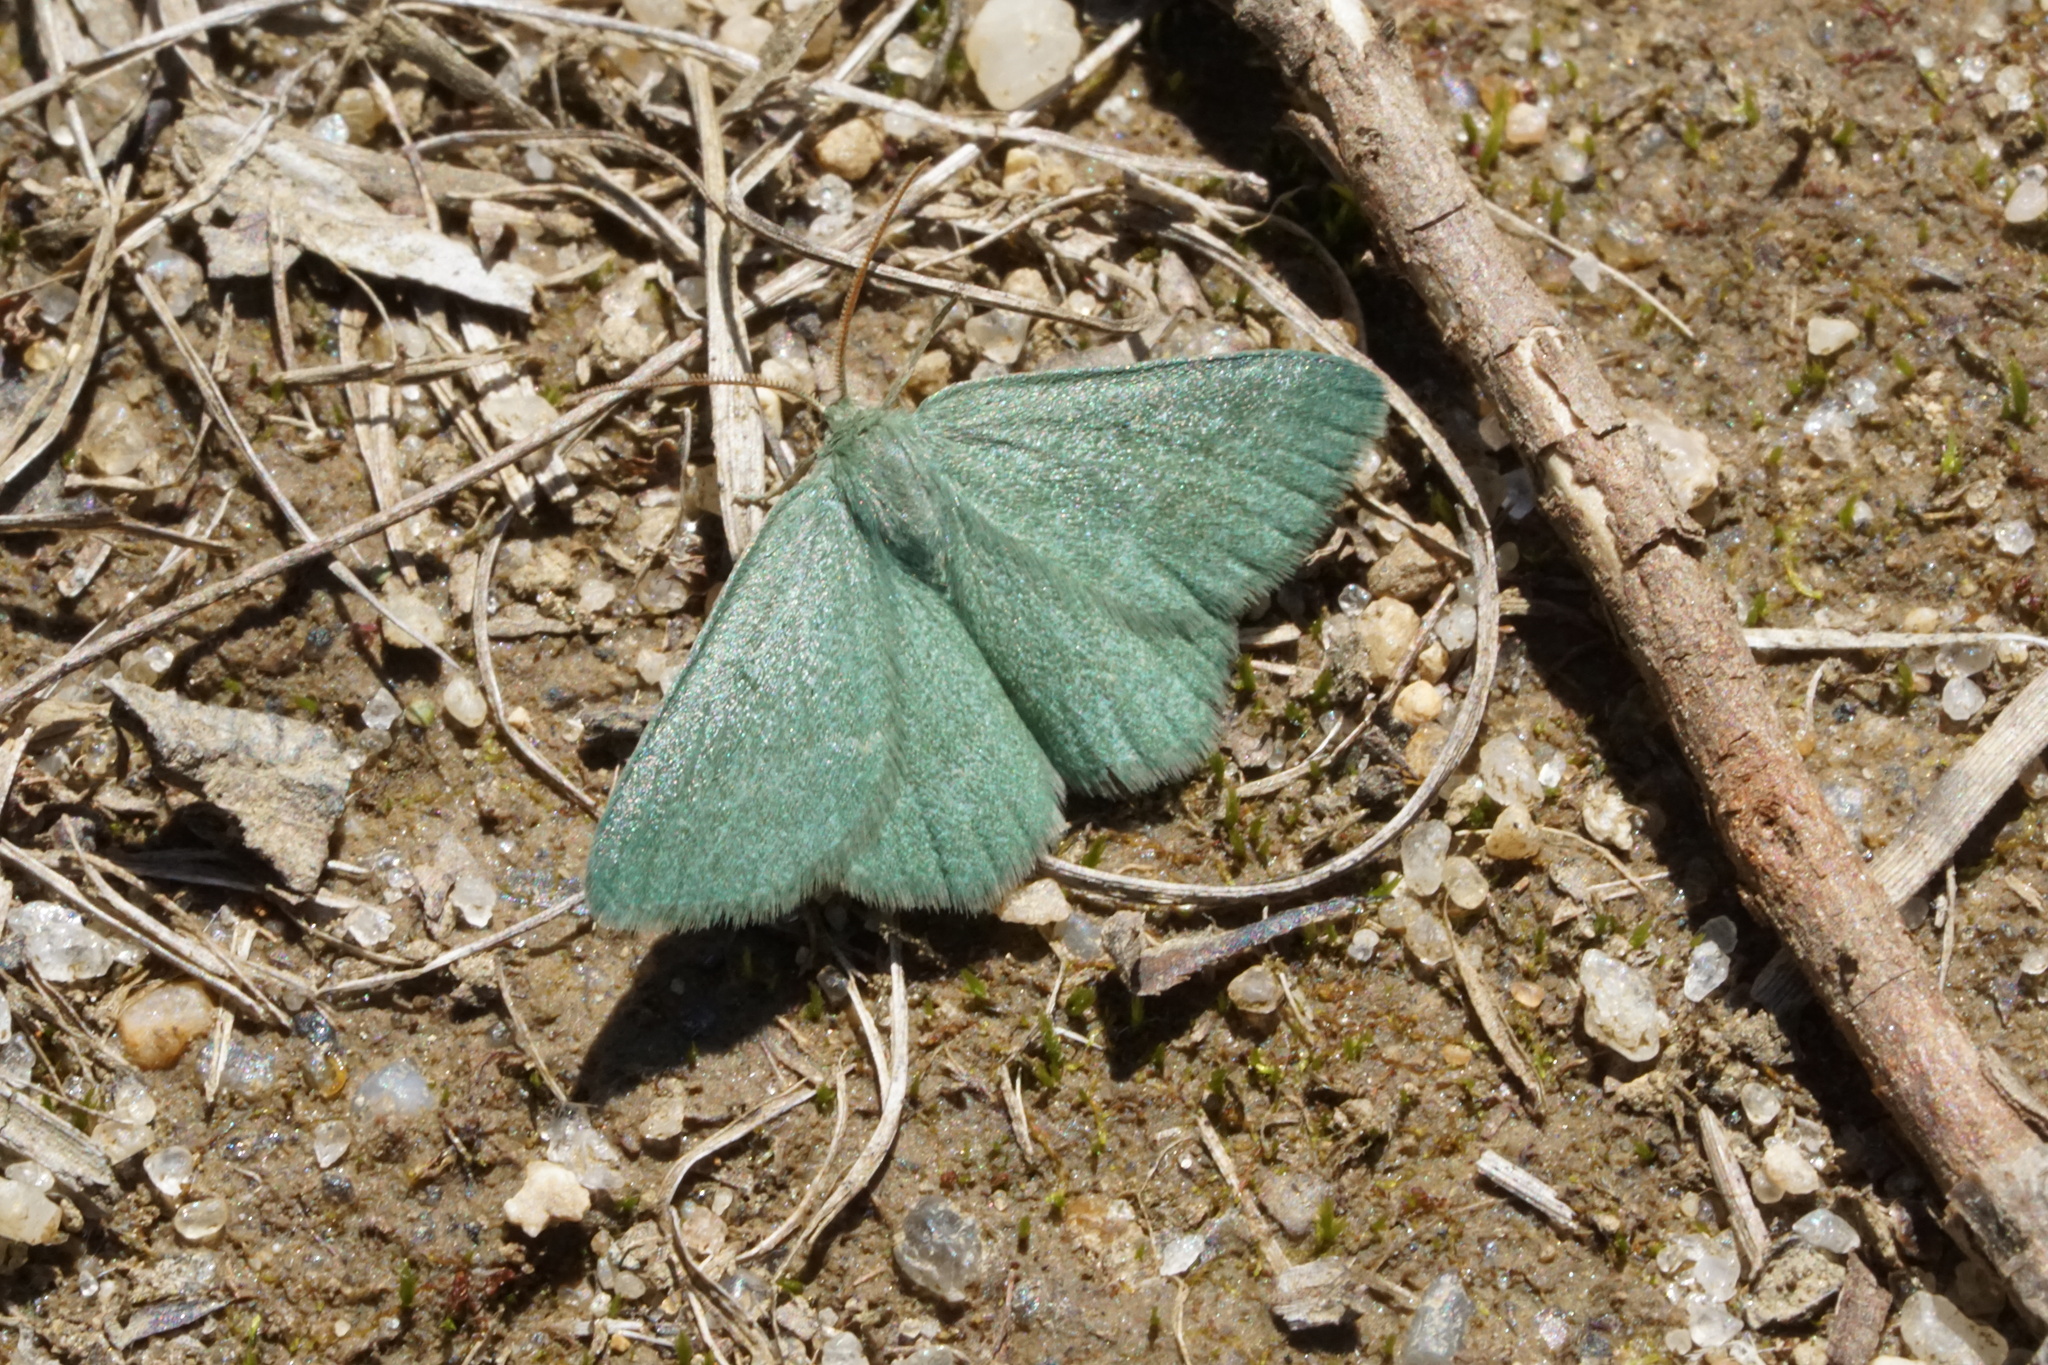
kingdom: Animalia
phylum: Arthropoda
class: Insecta
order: Lepidoptera
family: Geometridae
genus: Mesothea
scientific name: Mesothea incertata
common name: Day emerald moth
